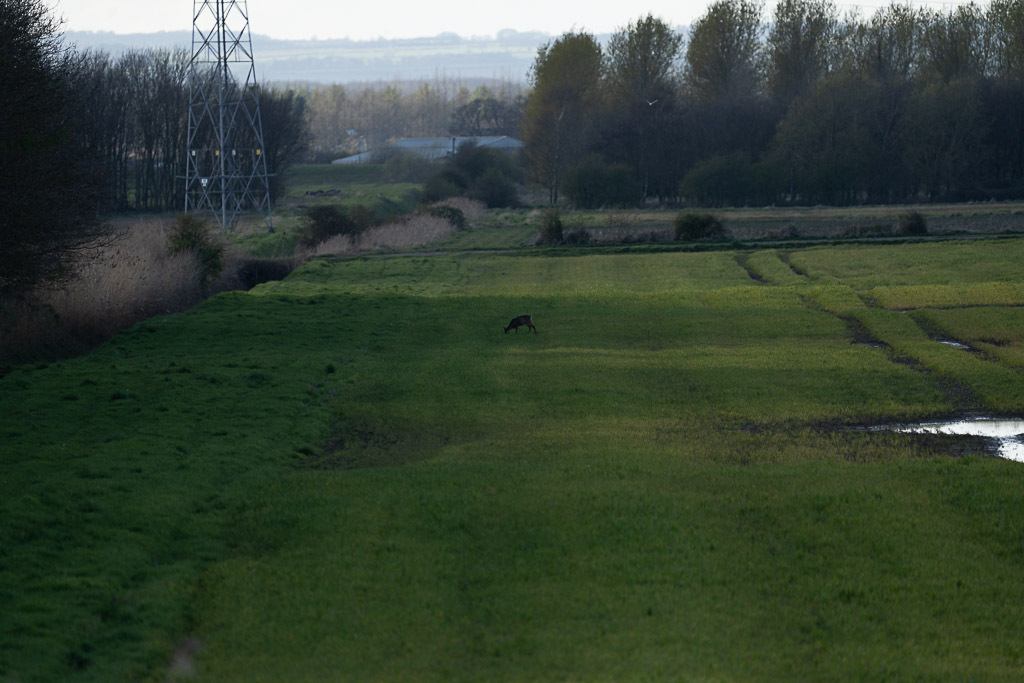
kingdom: Animalia
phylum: Chordata
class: Mammalia
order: Artiodactyla
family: Cervidae
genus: Capreolus
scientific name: Capreolus capreolus
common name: Western roe deer
